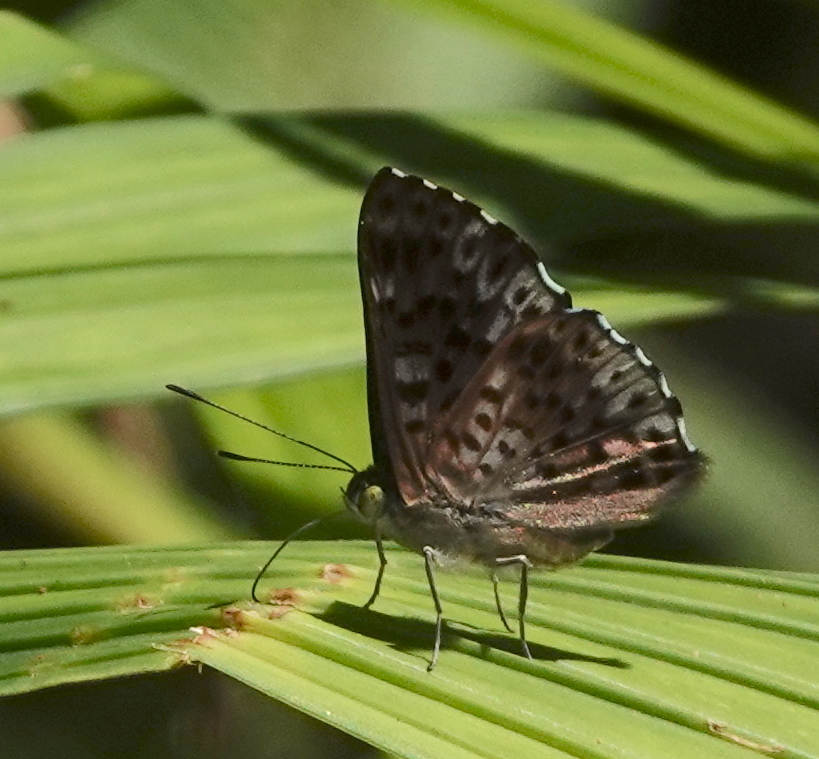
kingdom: Animalia
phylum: Arthropoda
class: Insecta
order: Lepidoptera
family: Riodinidae
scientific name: Riodinidae
